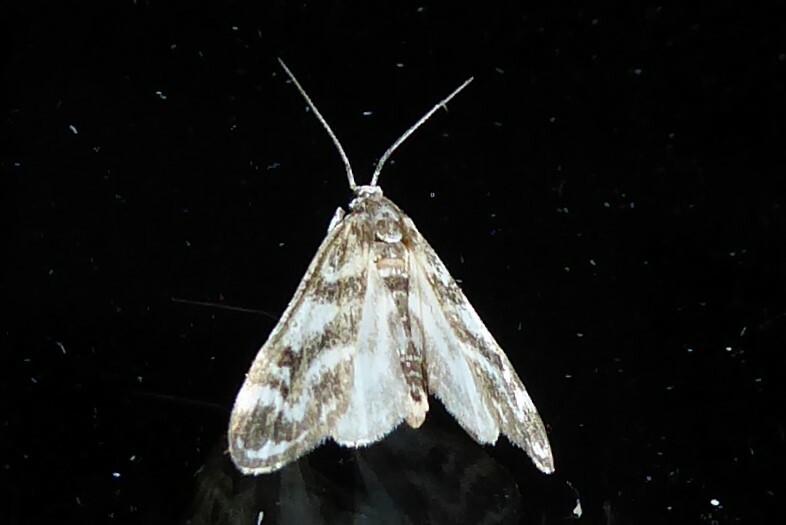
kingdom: Animalia
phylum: Arthropoda
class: Insecta
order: Lepidoptera
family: Crambidae
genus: Hygraula
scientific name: Hygraula nitens
